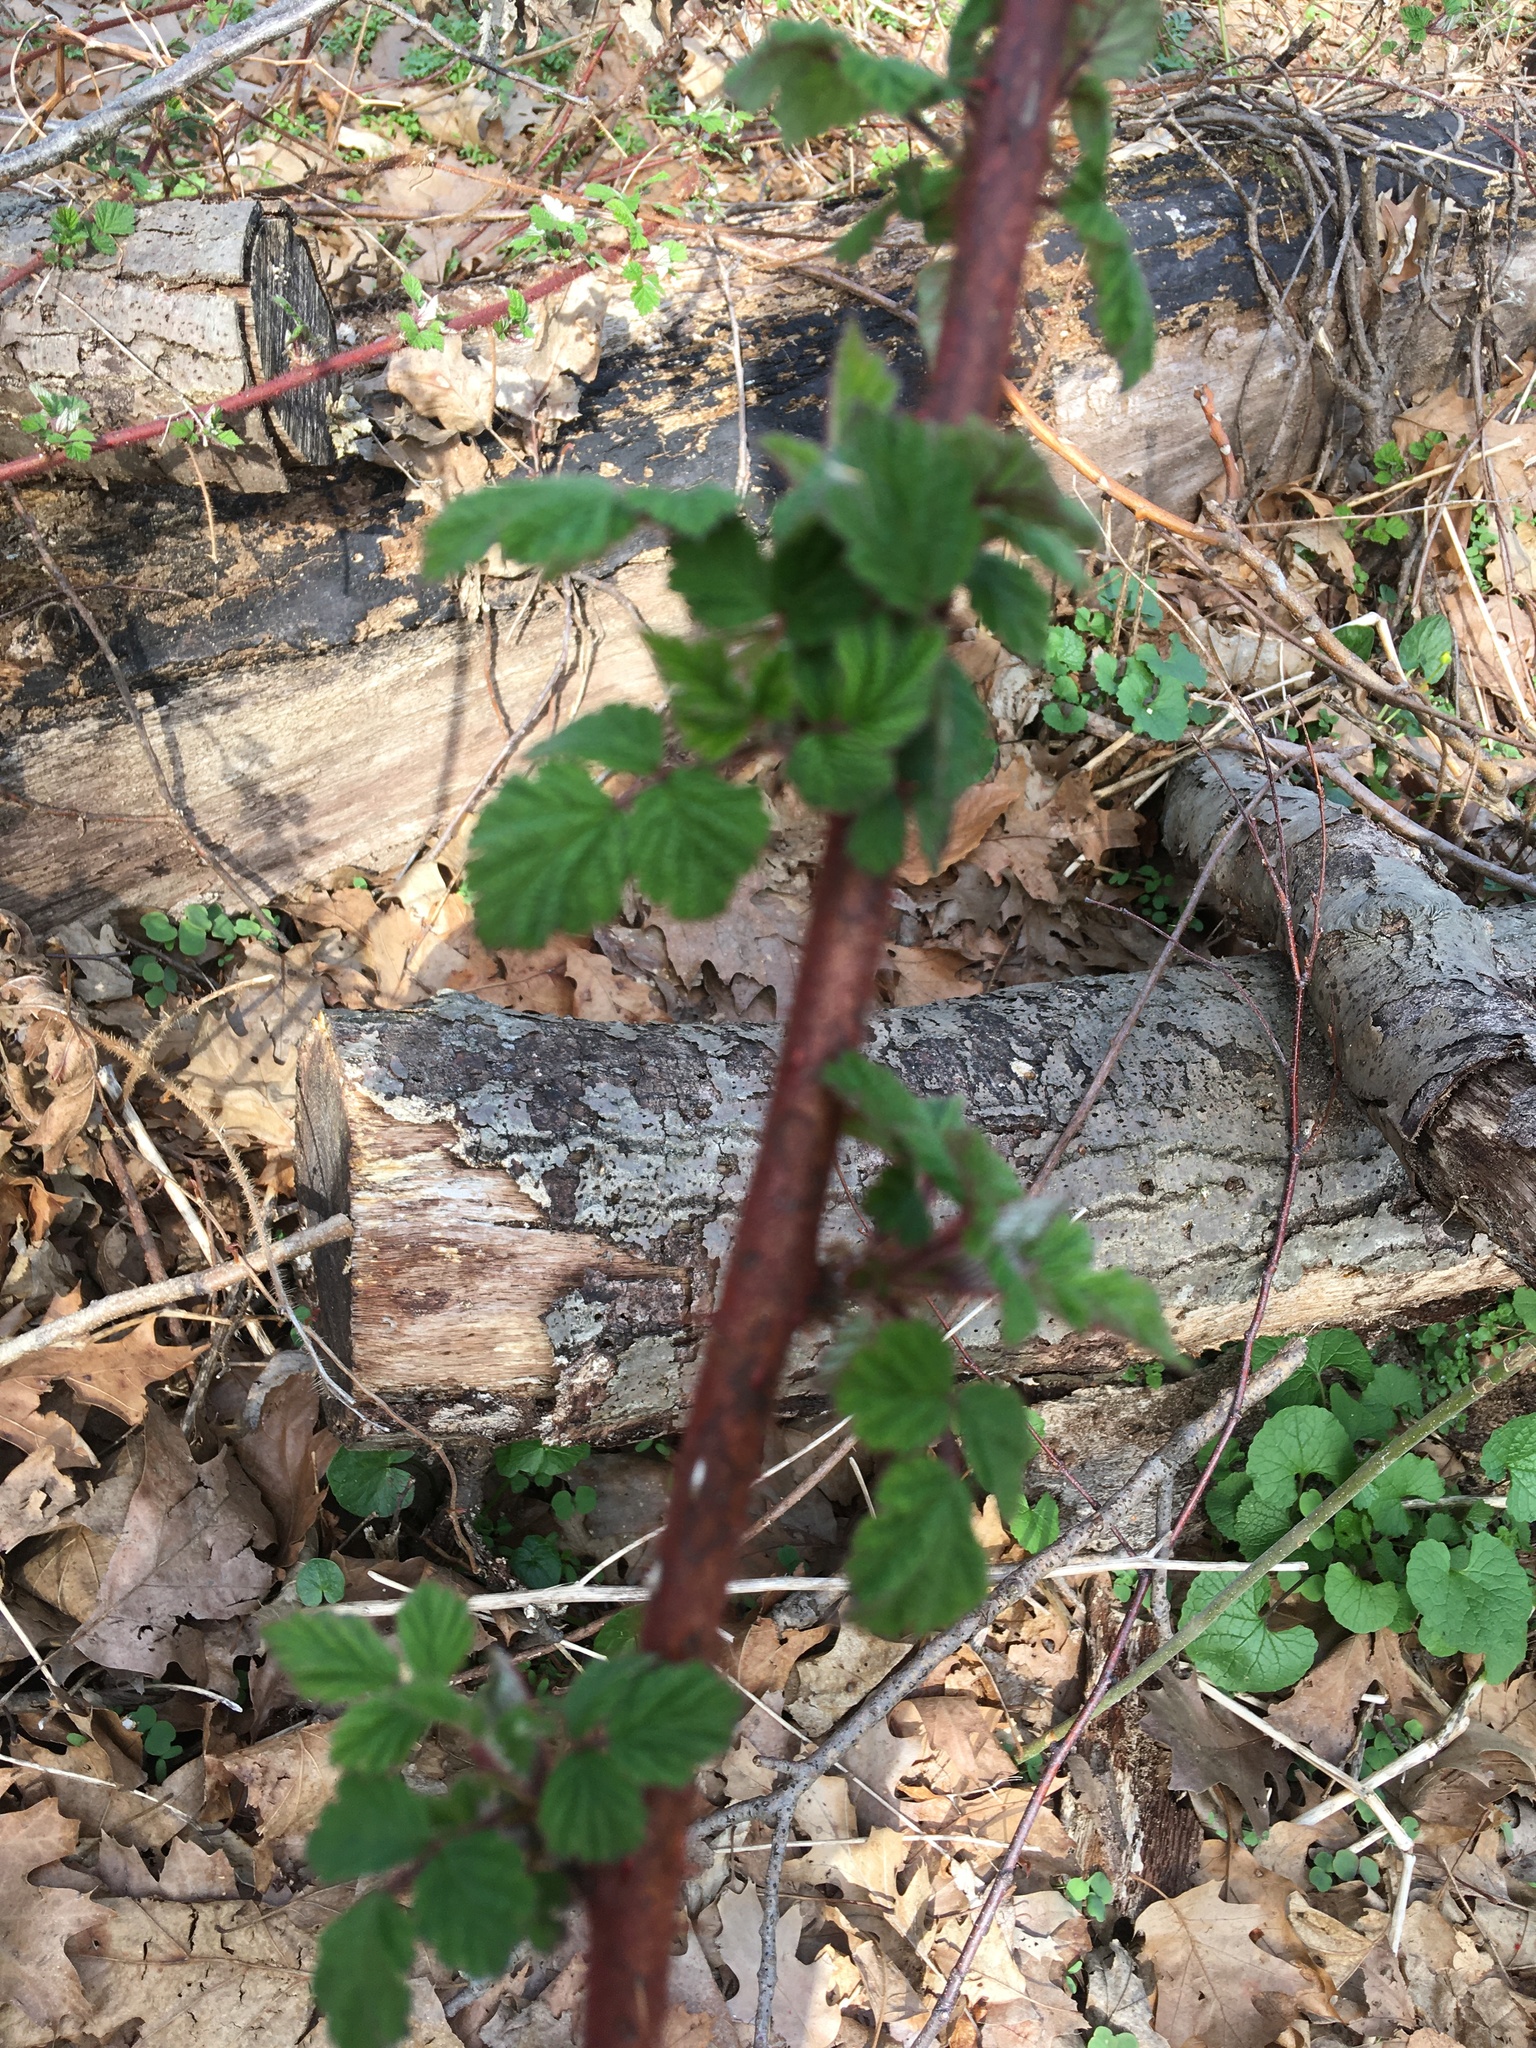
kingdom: Plantae
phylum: Tracheophyta
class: Magnoliopsida
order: Rosales
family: Rosaceae
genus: Rubus
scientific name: Rubus phoenicolasius
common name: Japanese wineberry
